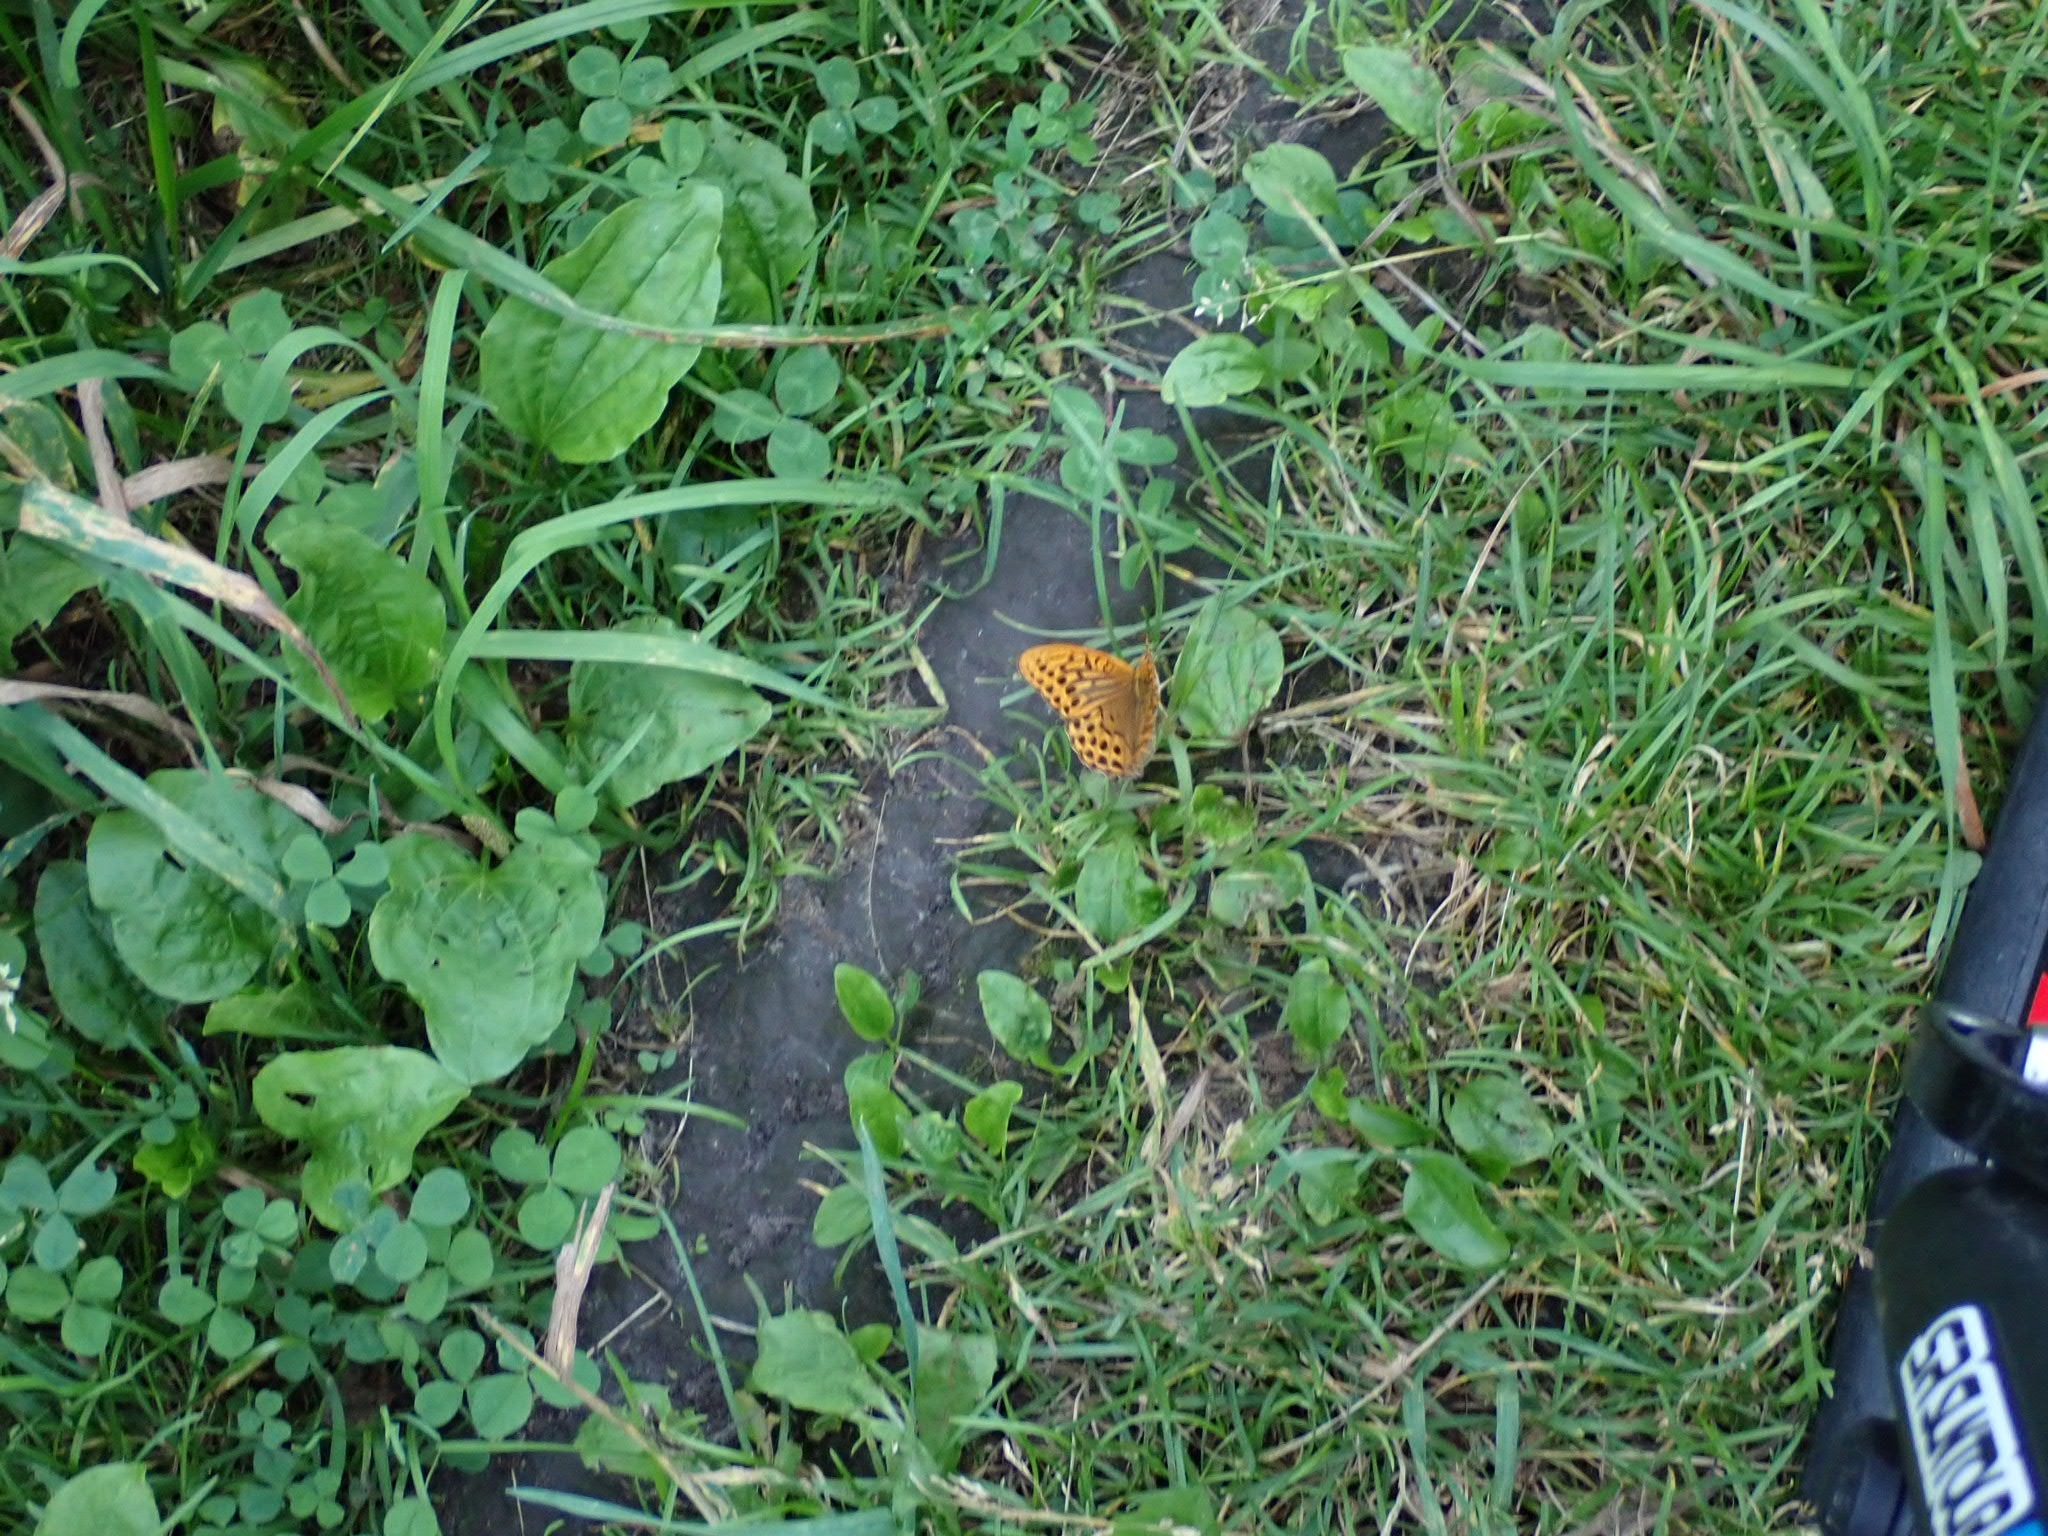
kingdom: Animalia
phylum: Arthropoda
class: Insecta
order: Lepidoptera
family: Nymphalidae
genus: Argynnis
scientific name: Argynnis paphia
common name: Silver-washed fritillary
